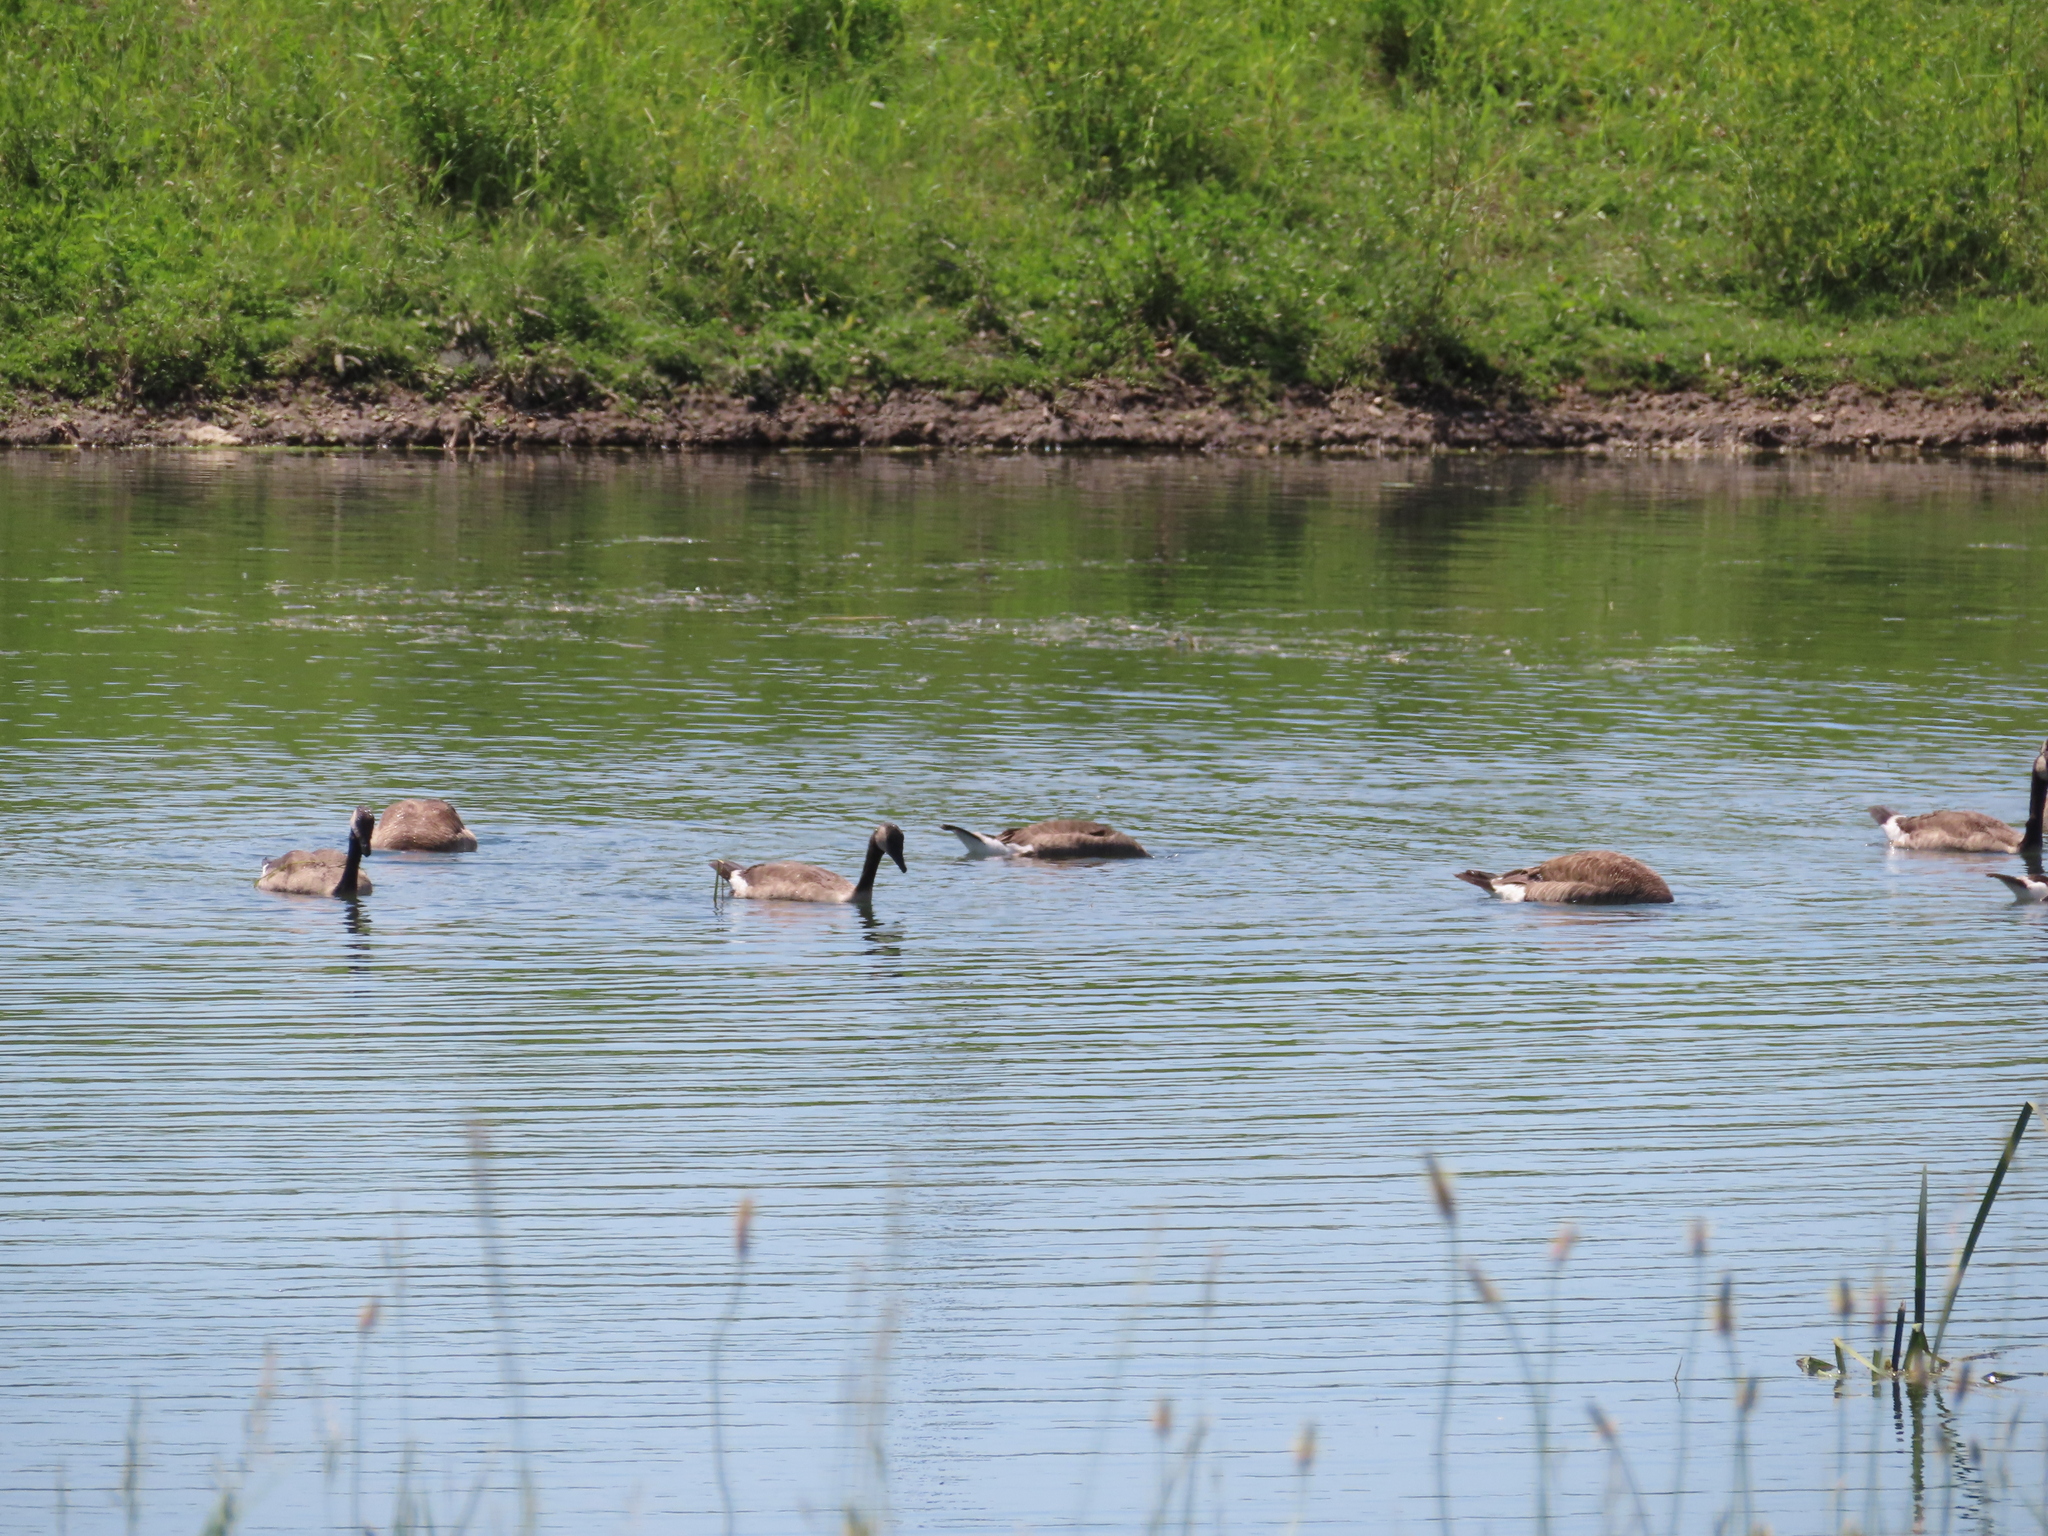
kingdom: Animalia
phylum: Chordata
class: Aves
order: Anseriformes
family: Anatidae
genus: Branta
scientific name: Branta canadensis
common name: Canada goose
